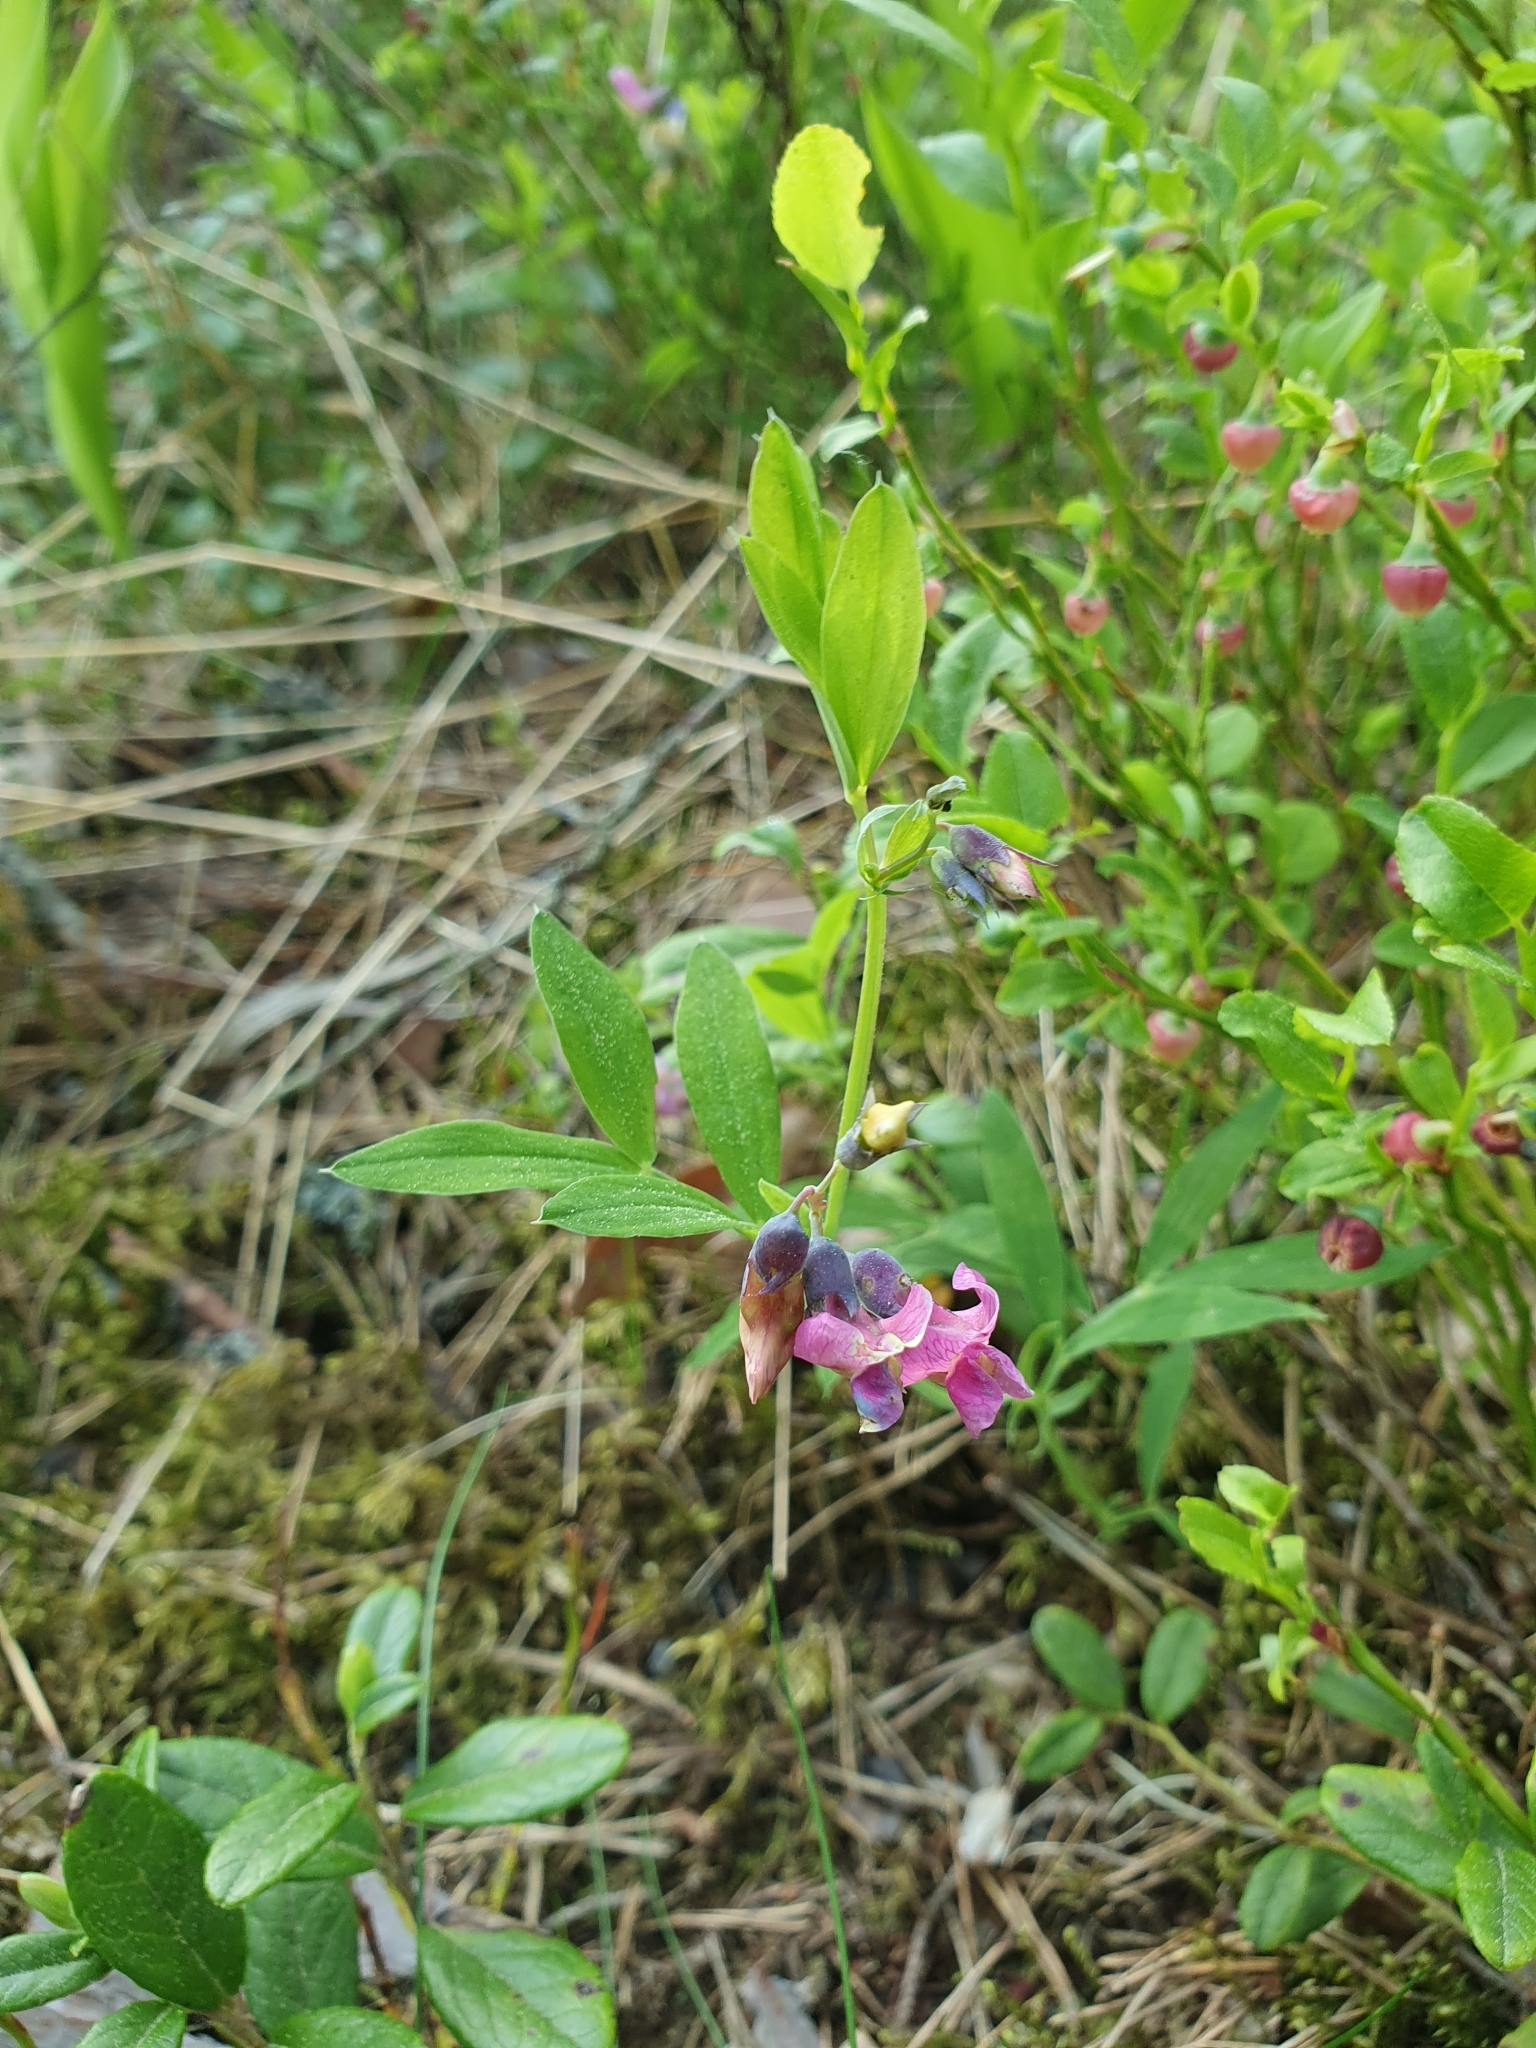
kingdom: Plantae
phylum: Tracheophyta
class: Magnoliopsida
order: Fabales
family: Fabaceae
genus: Lathyrus
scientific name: Lathyrus linifolius
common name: Bitter-vetch
